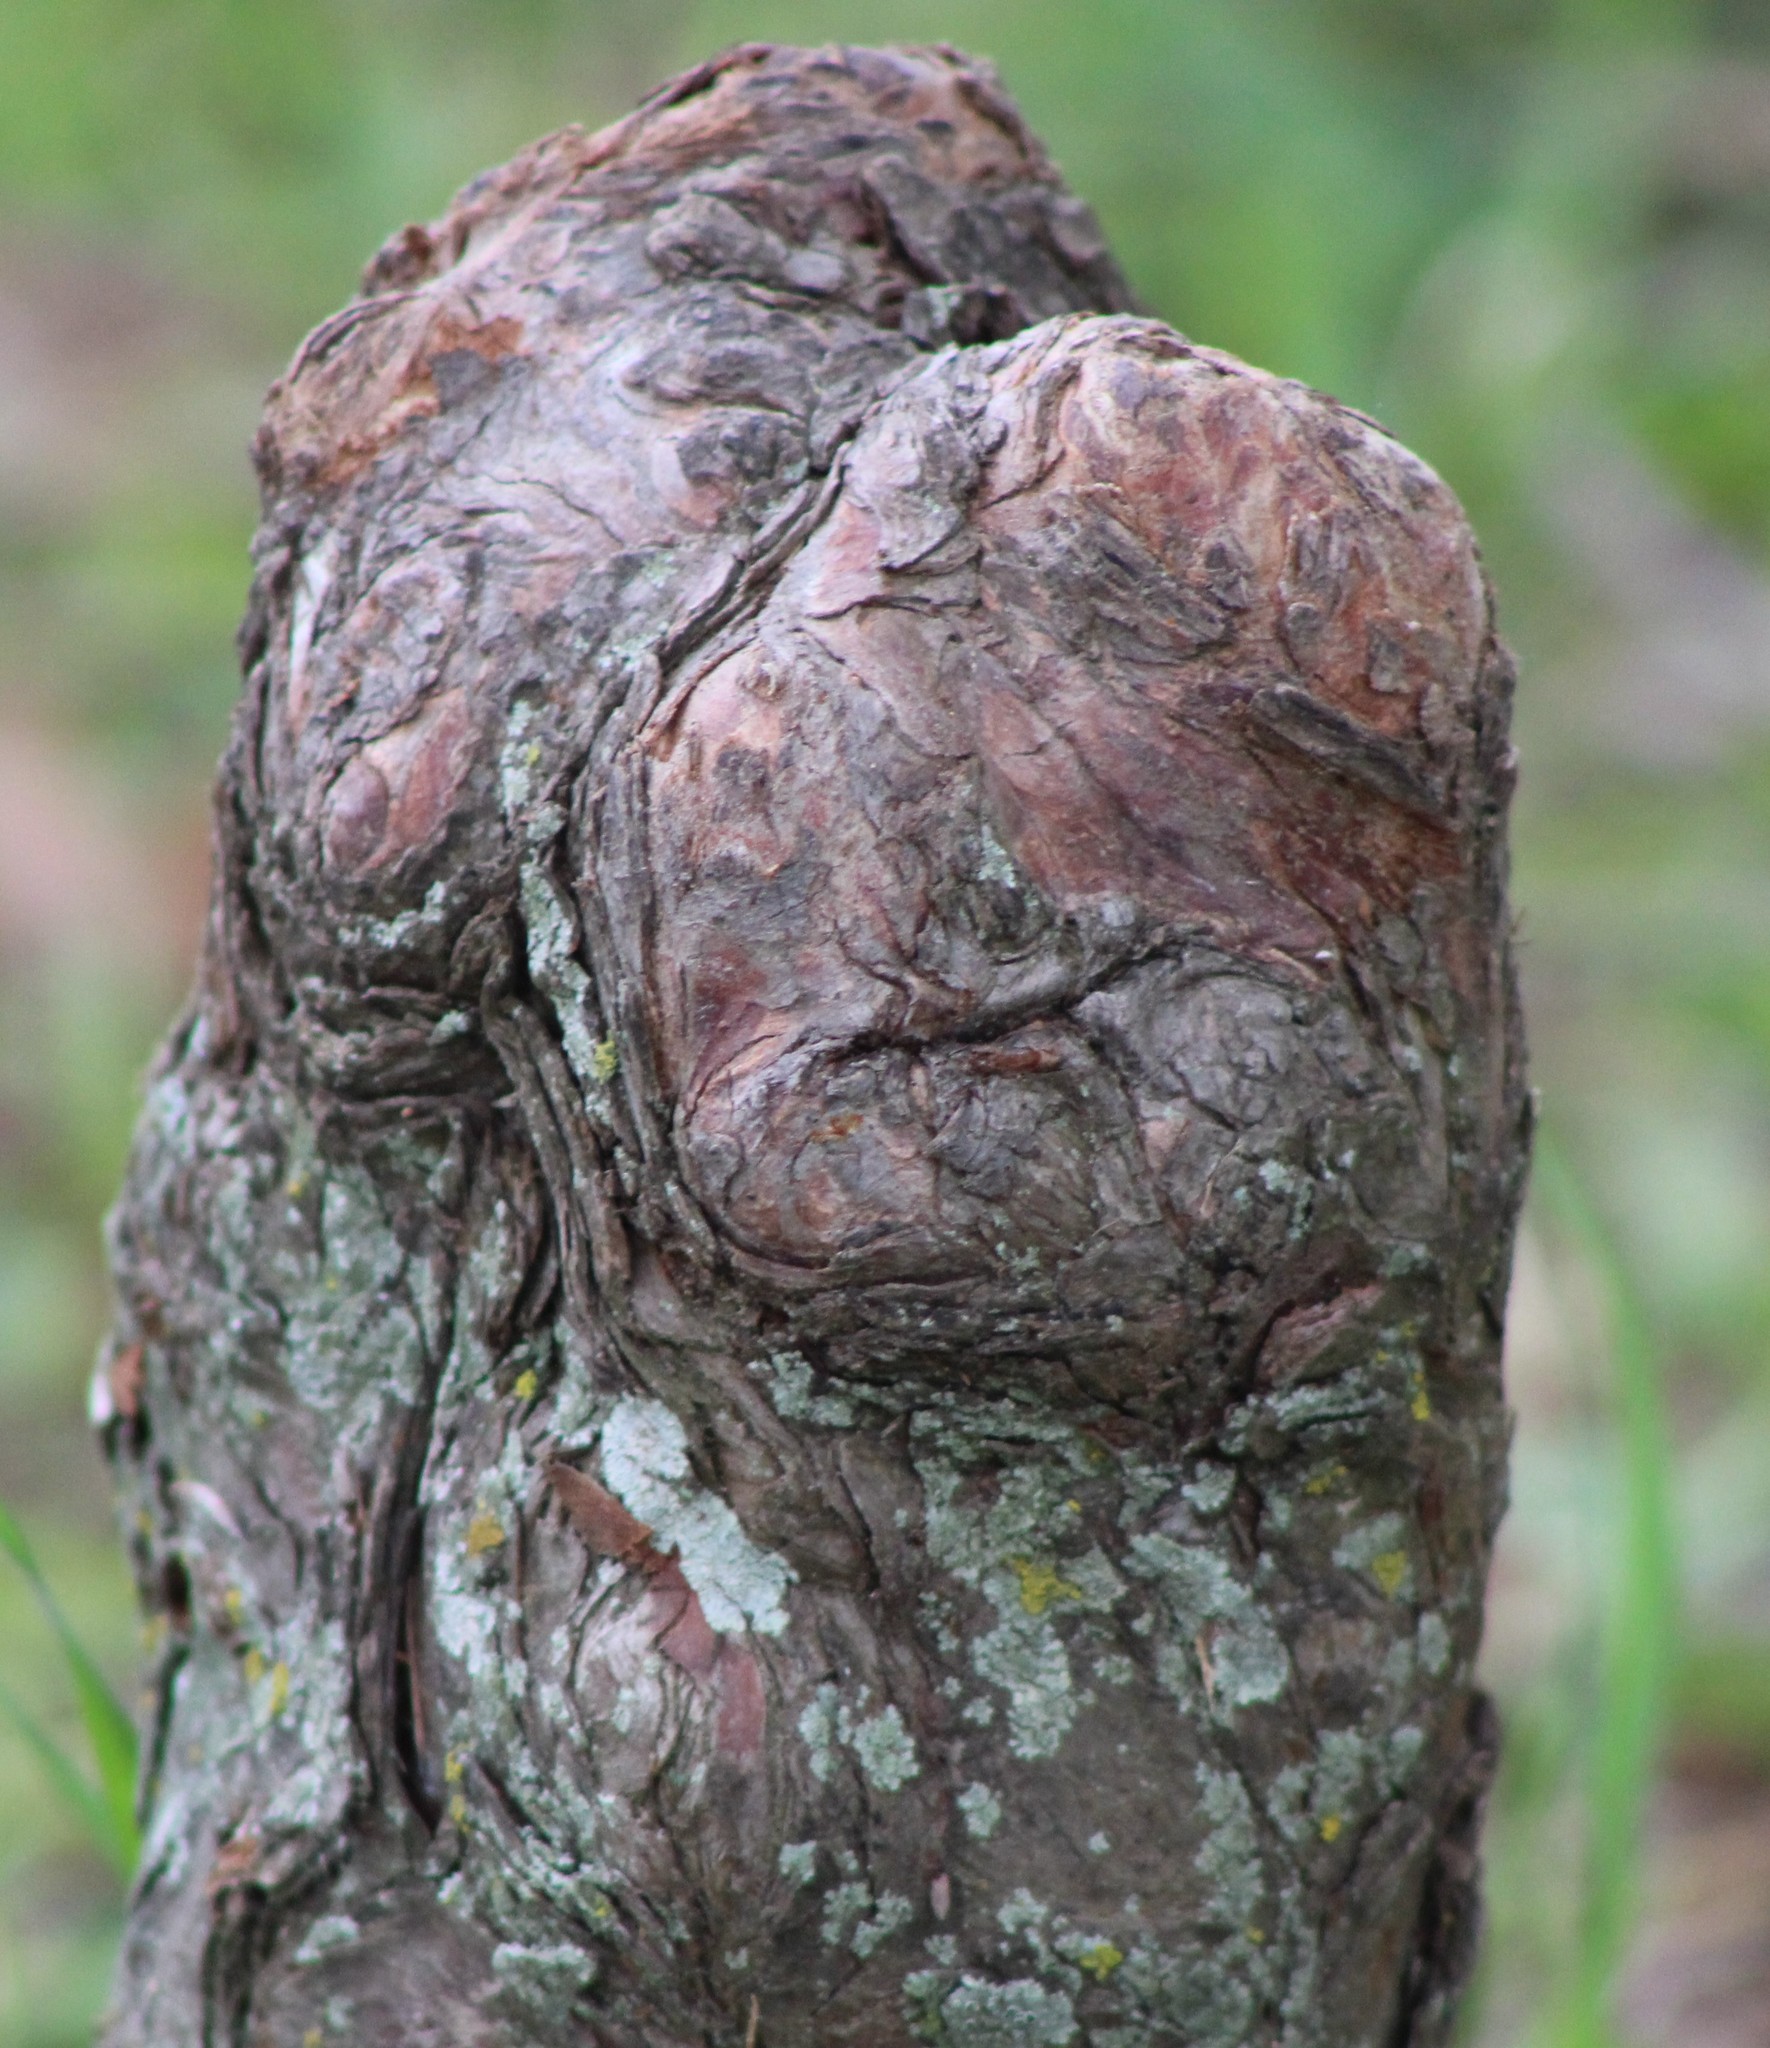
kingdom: Plantae
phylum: Tracheophyta
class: Pinopsida
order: Pinales
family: Cupressaceae
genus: Taxodium
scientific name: Taxodium distichum
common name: Bald cypress
